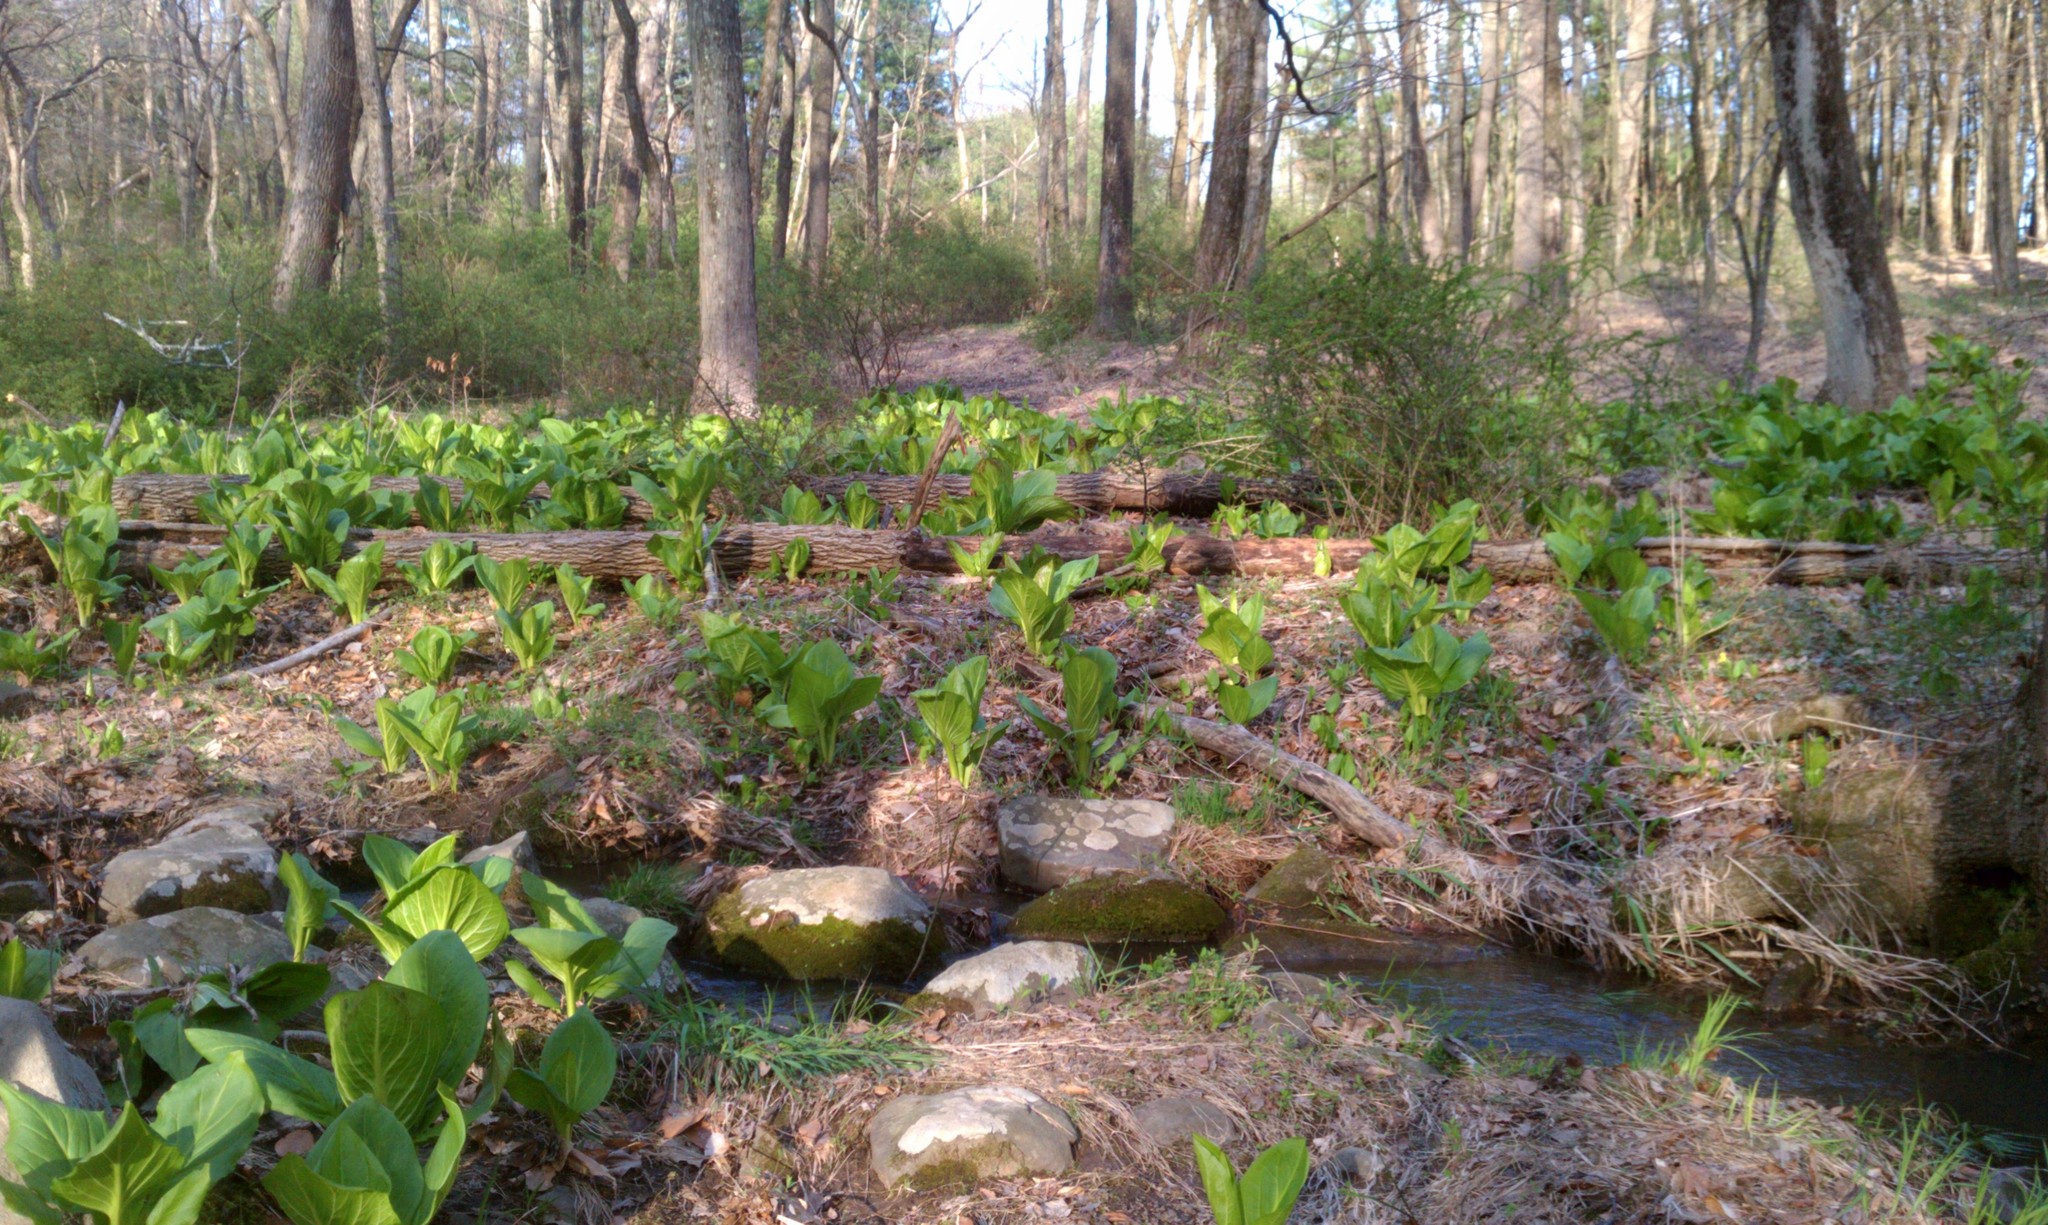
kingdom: Plantae
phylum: Tracheophyta
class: Liliopsida
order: Alismatales
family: Araceae
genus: Symplocarpus
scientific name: Symplocarpus foetidus
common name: Eastern skunk cabbage
